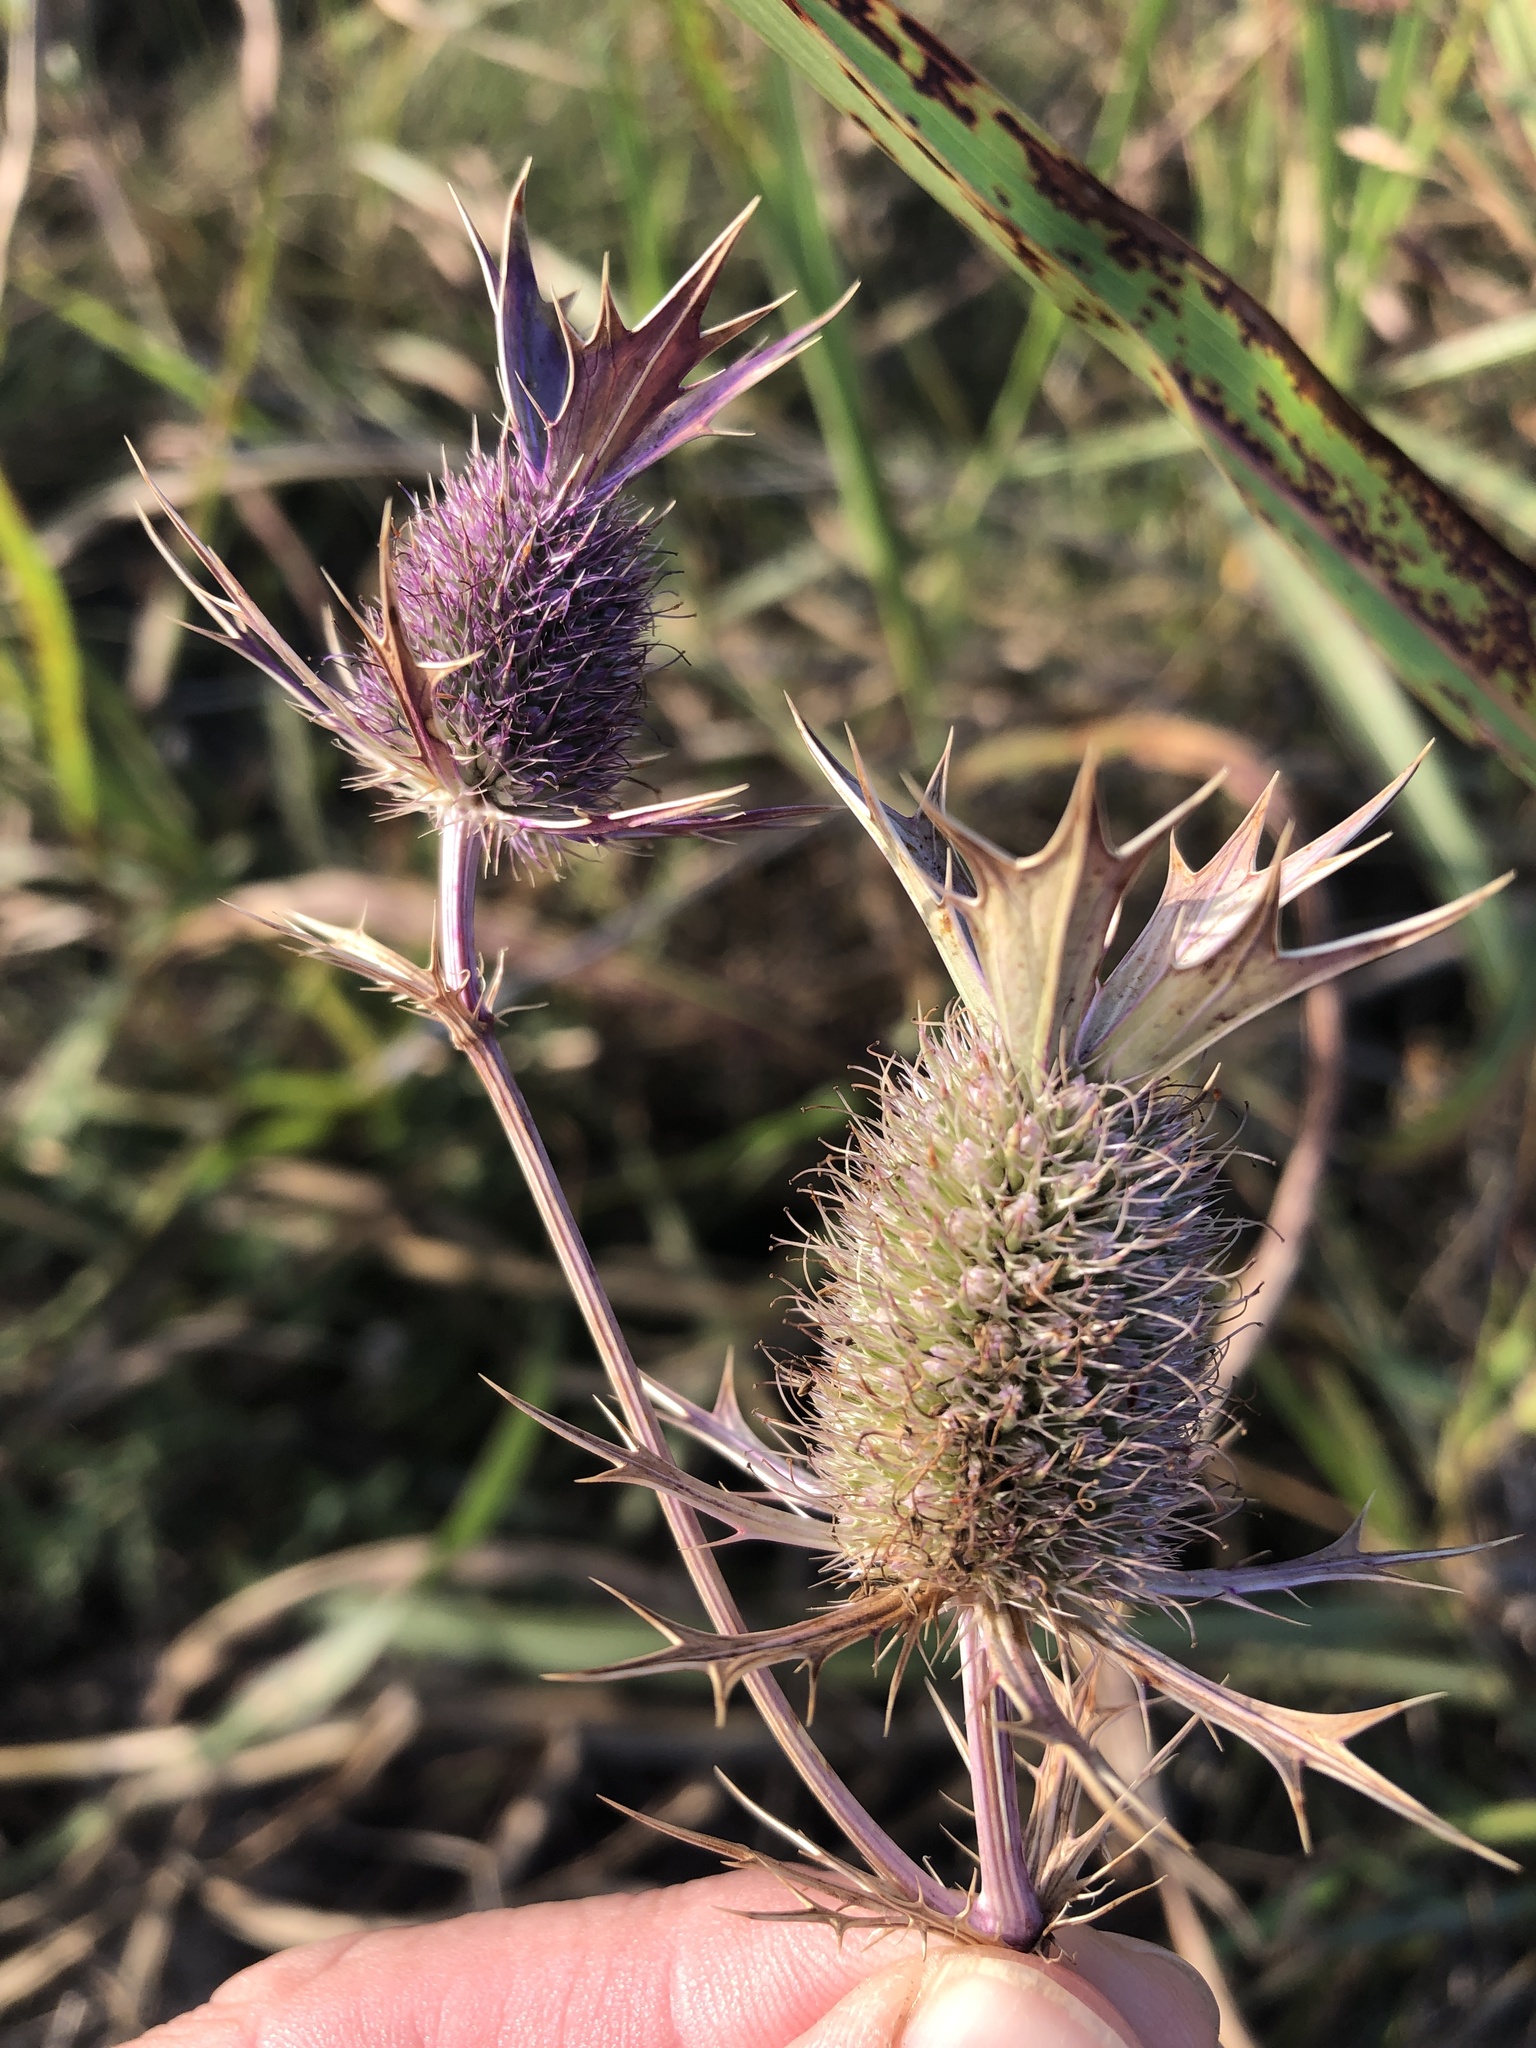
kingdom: Plantae
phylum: Tracheophyta
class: Magnoliopsida
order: Apiales
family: Apiaceae
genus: Eryngium
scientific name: Eryngium leavenworthii
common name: Leavenworth's eryngo
